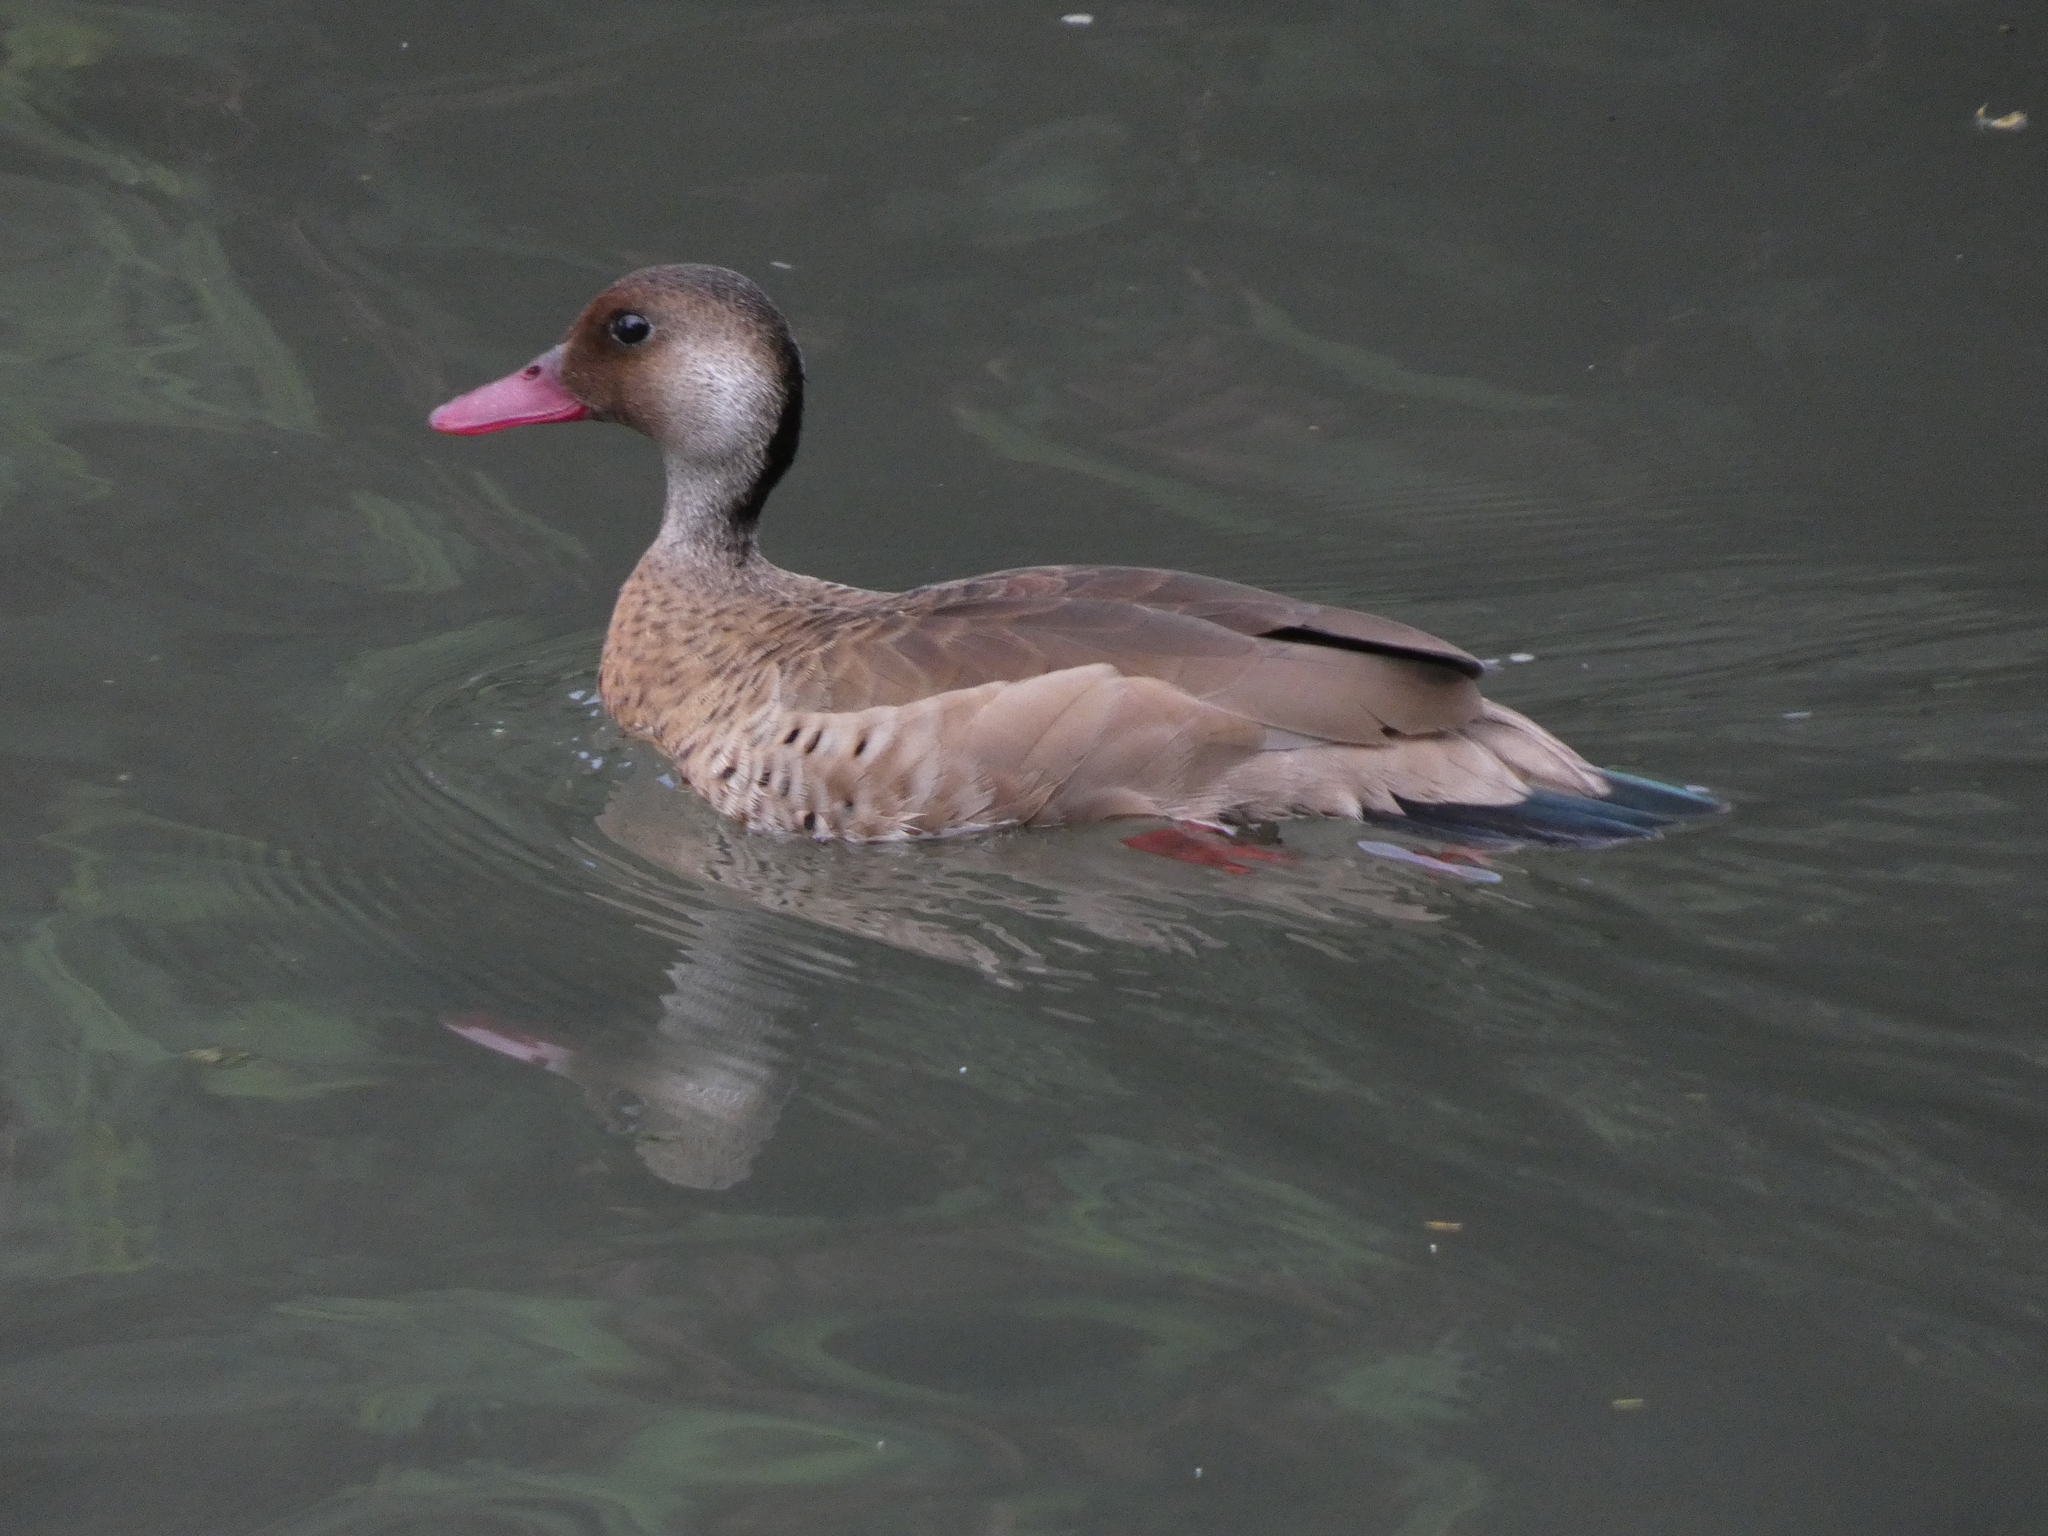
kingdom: Animalia
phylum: Chordata
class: Aves
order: Anseriformes
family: Anatidae
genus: Amazonetta
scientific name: Amazonetta brasiliensis
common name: Brazilian teal
